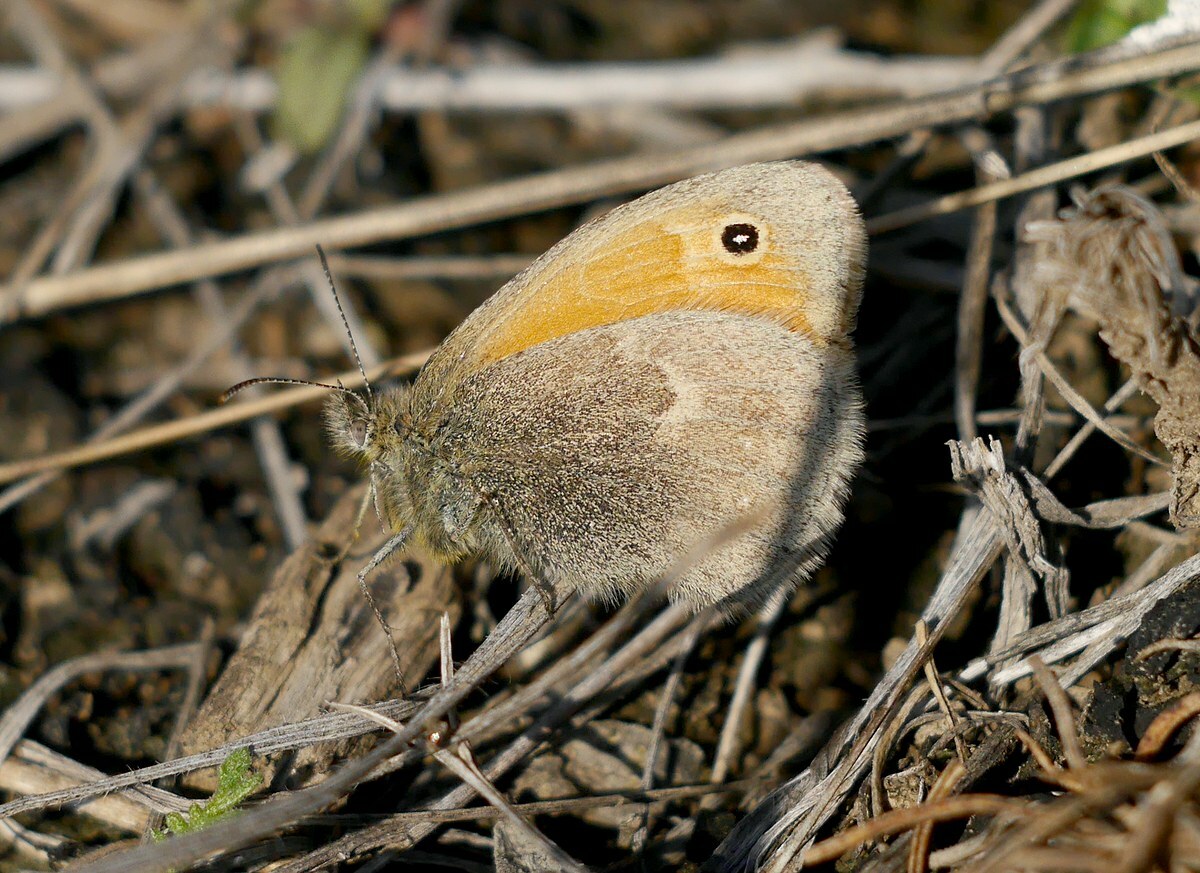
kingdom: Animalia
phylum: Arthropoda
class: Insecta
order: Lepidoptera
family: Nymphalidae
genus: Coenonympha
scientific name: Coenonympha pamphilus
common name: Small heath
